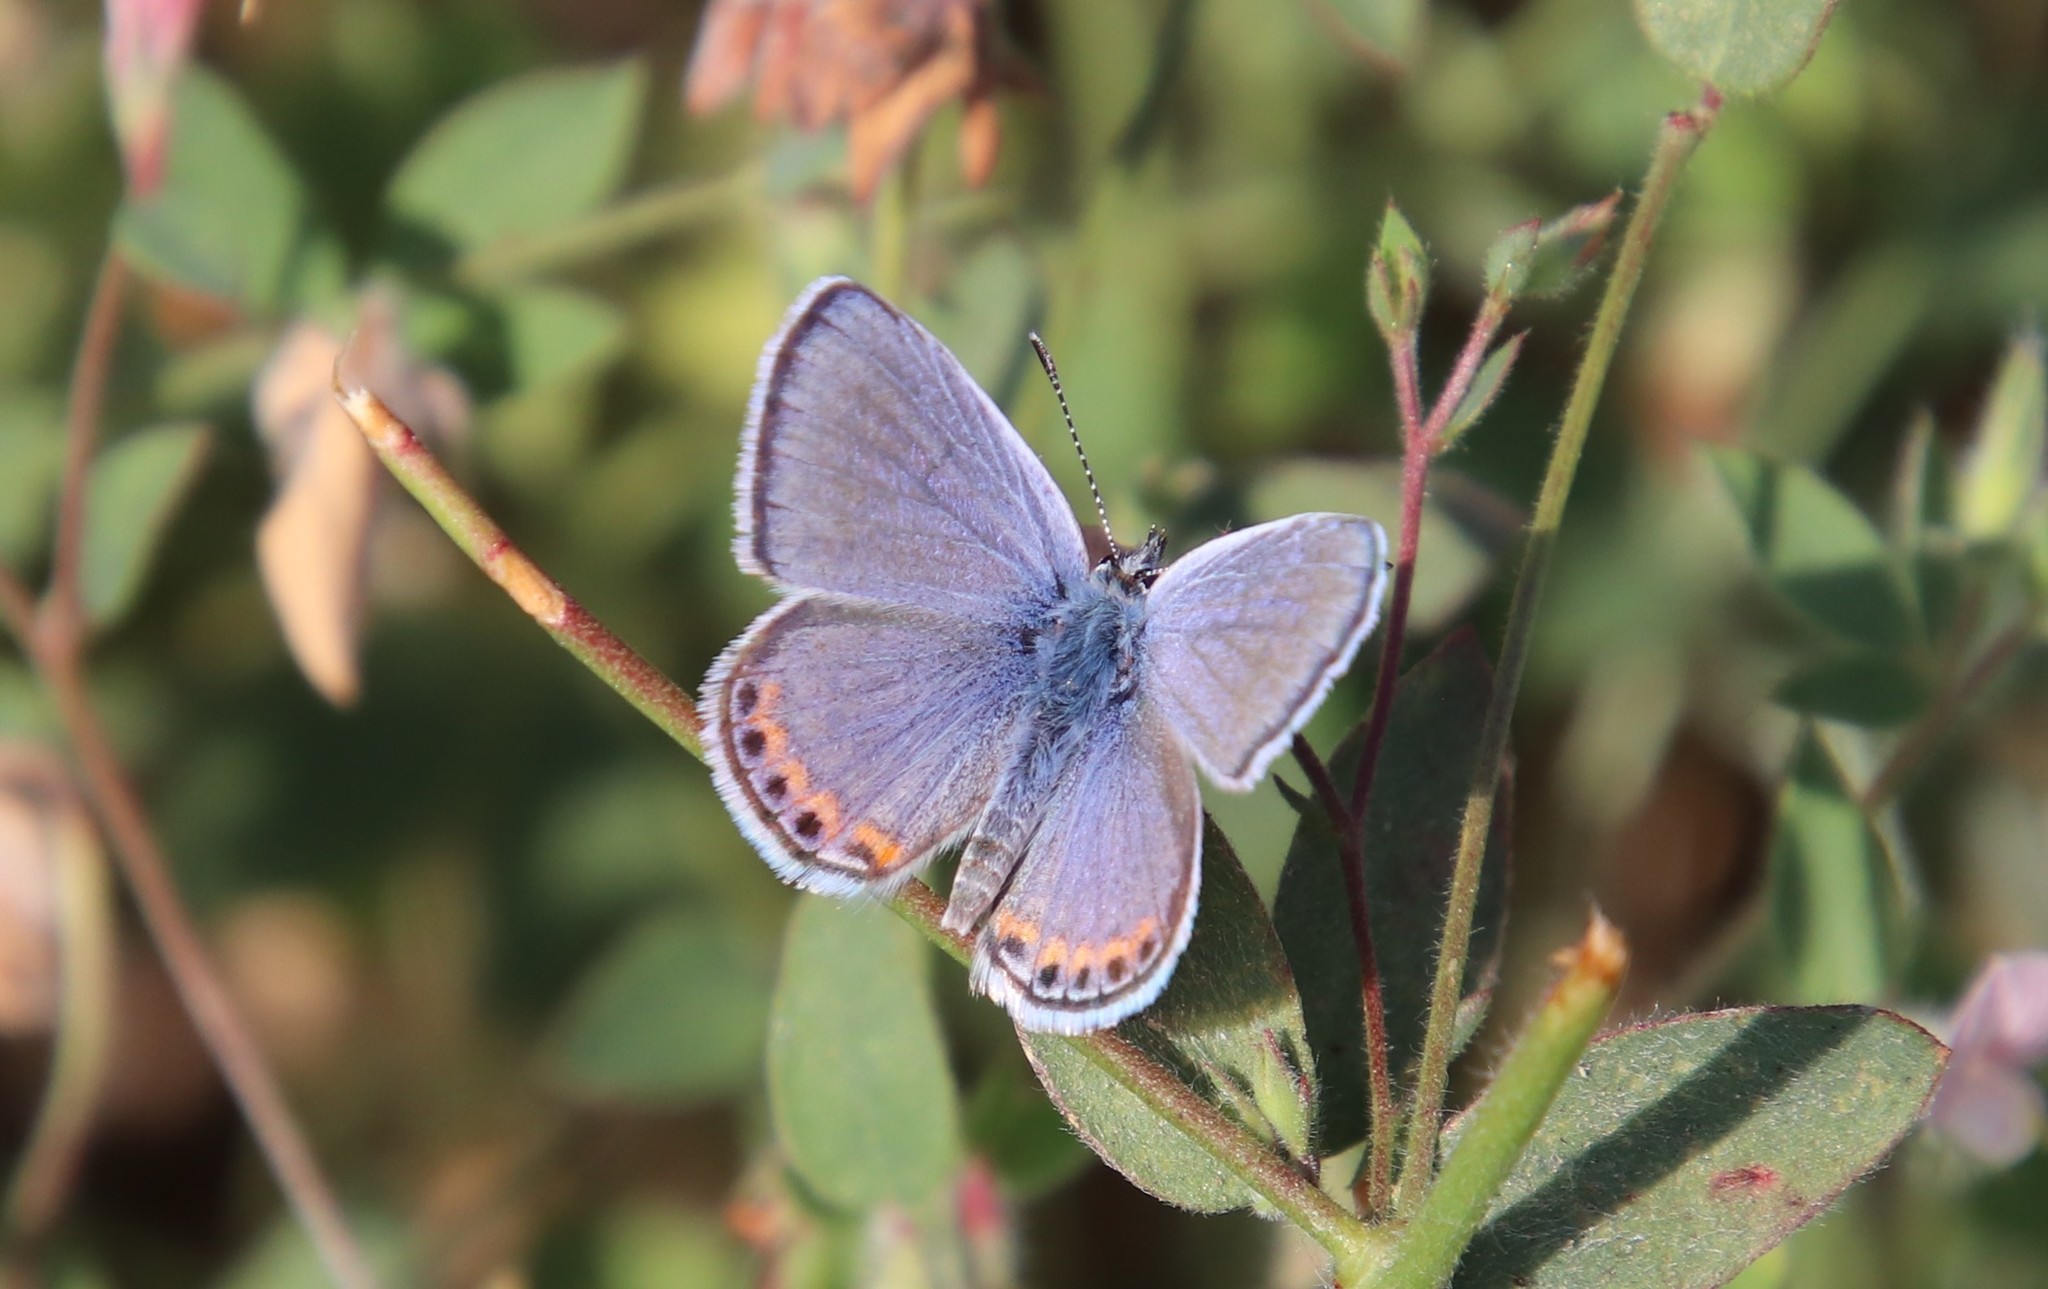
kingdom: Animalia
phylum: Arthropoda
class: Insecta
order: Lepidoptera
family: Lycaenidae
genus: Icaricia
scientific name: Icaricia acmon
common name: Acmon blue
